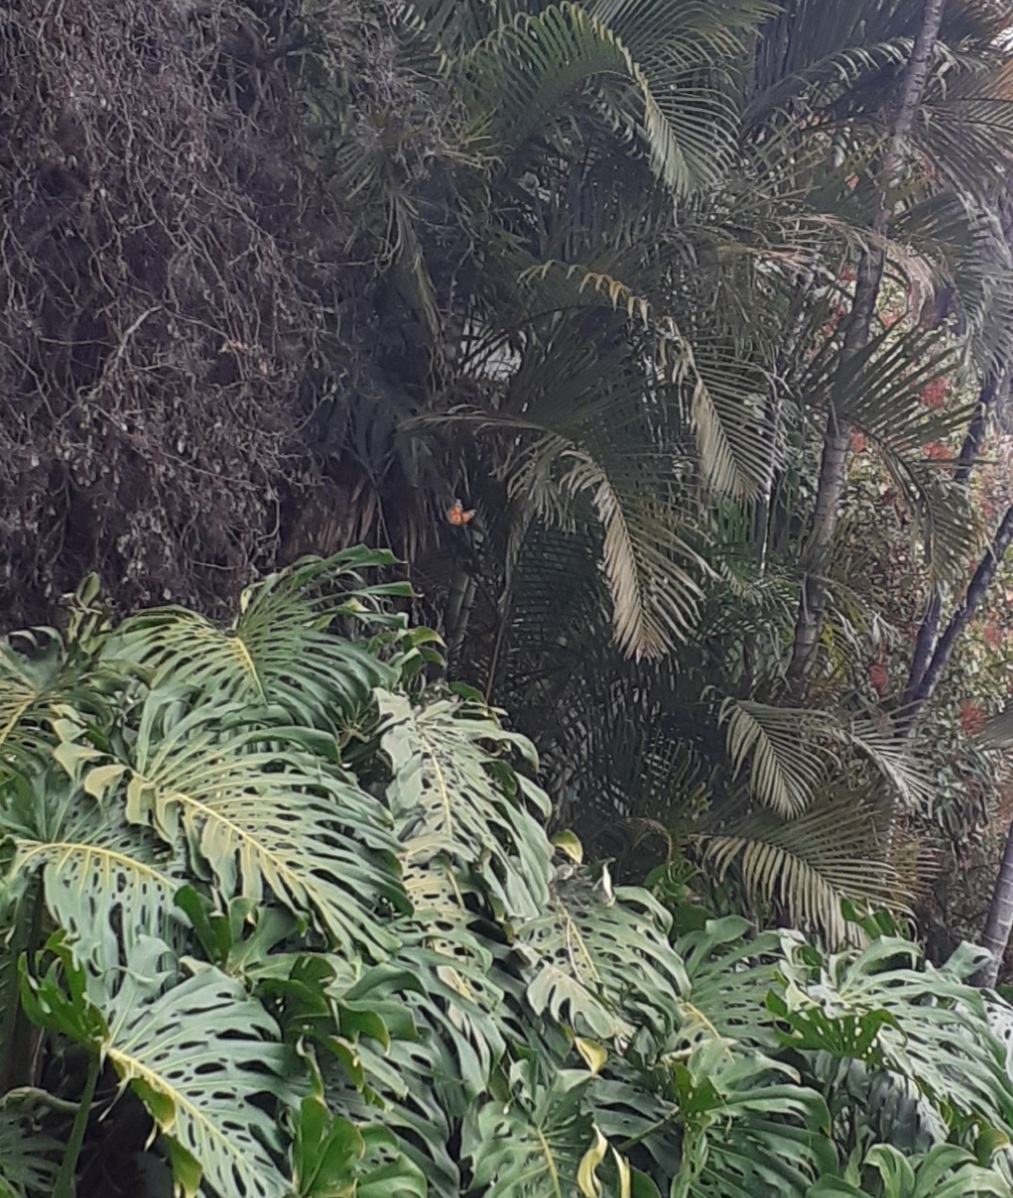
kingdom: Animalia
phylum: Arthropoda
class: Insecta
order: Lepidoptera
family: Nymphalidae
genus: Danaus
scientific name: Danaus plexippus
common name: Monarch
